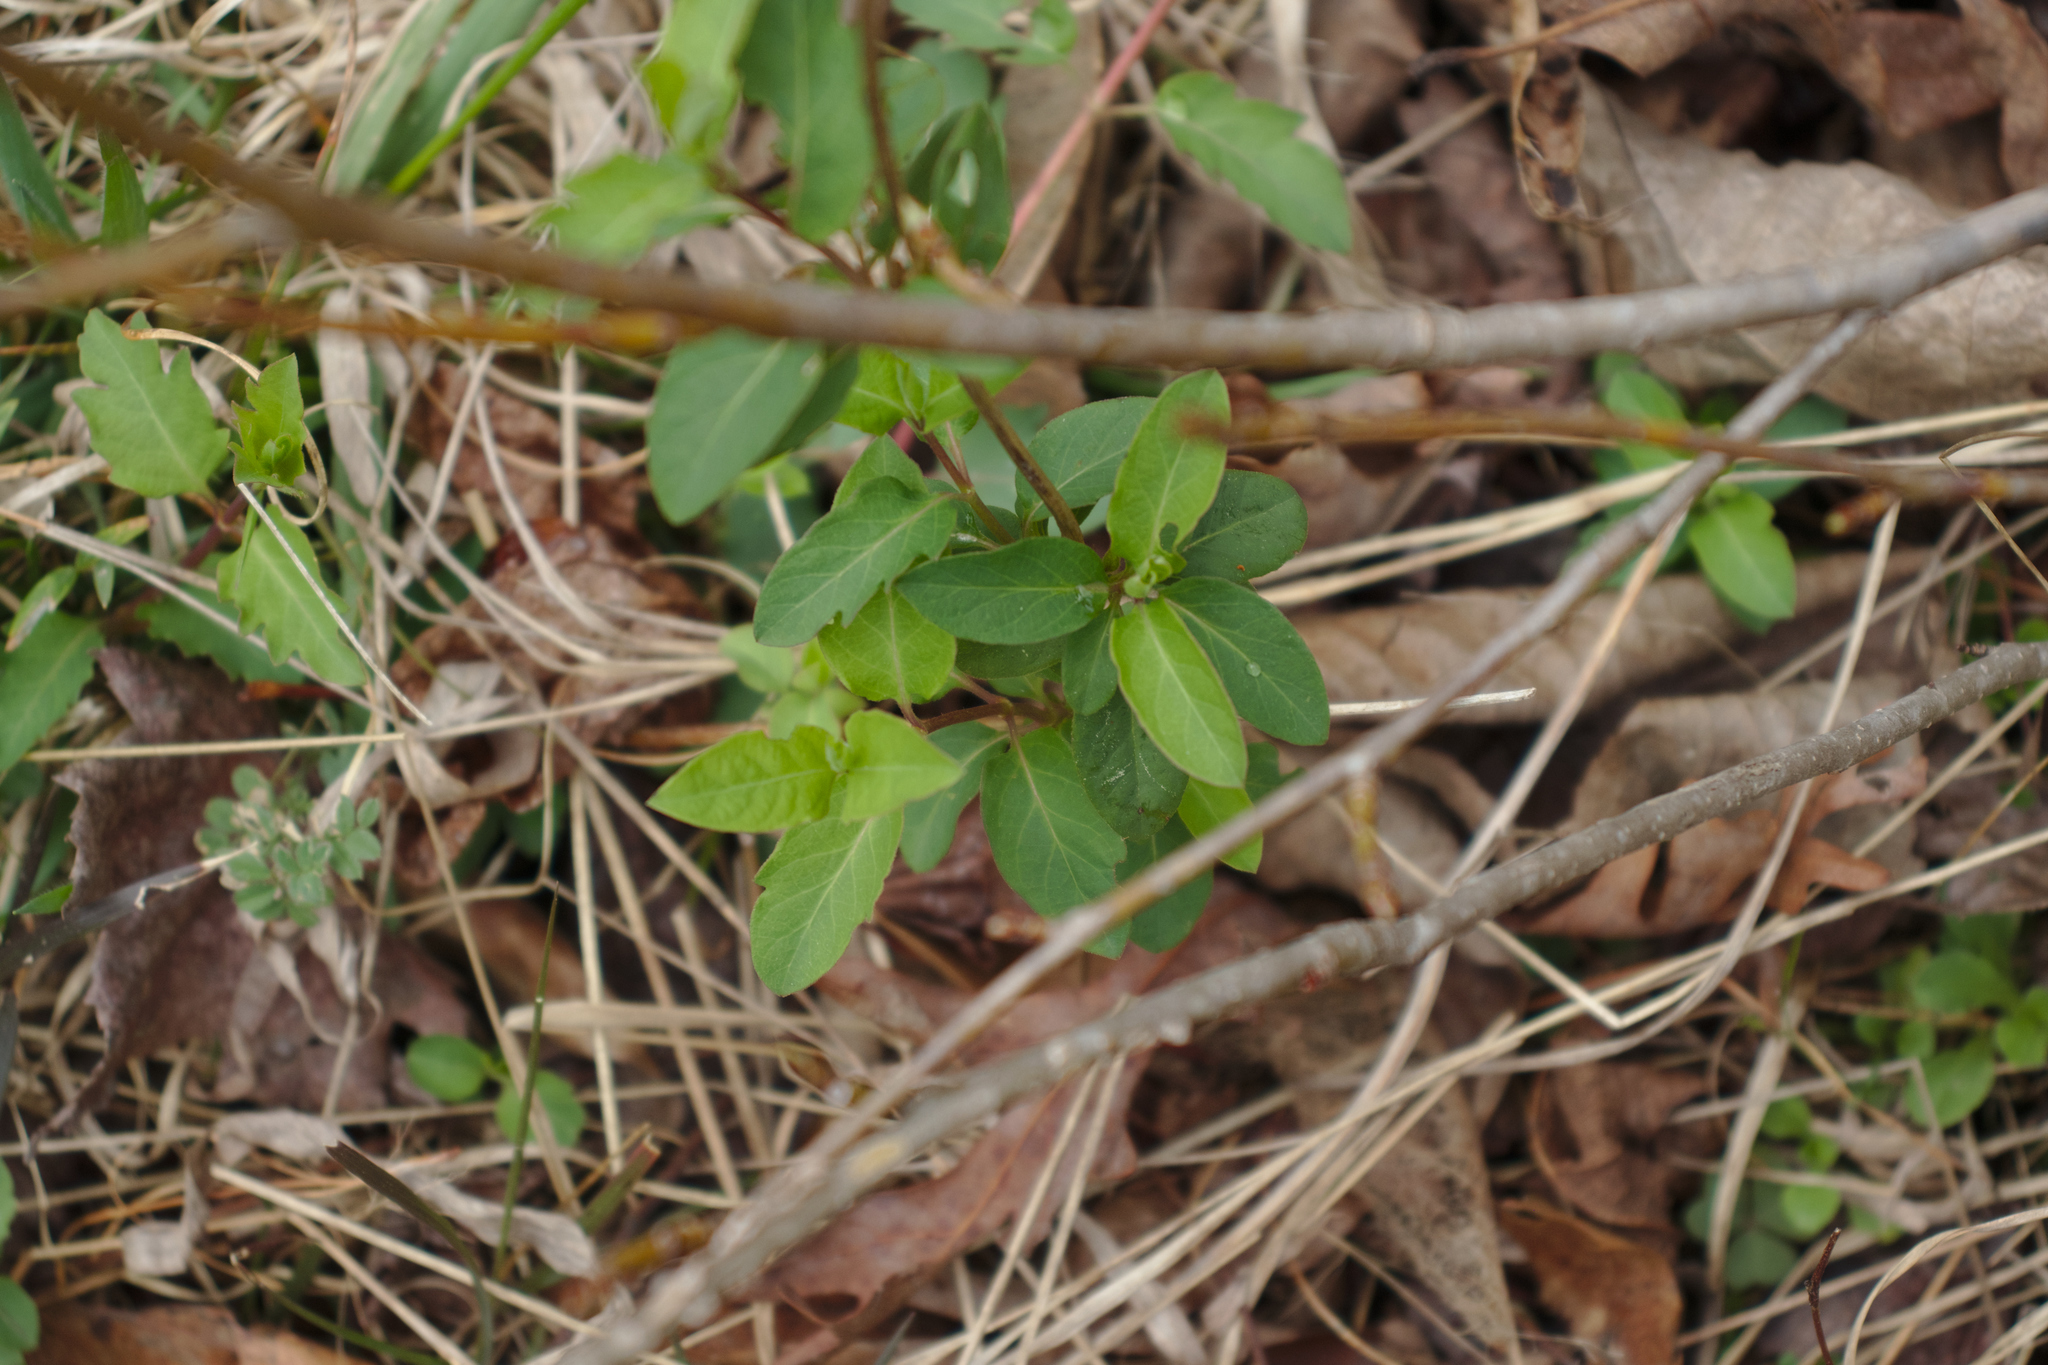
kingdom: Plantae
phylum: Tracheophyta
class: Magnoliopsida
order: Dipsacales
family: Caprifoliaceae
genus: Lonicera
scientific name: Lonicera japonica
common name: Japanese honeysuckle
